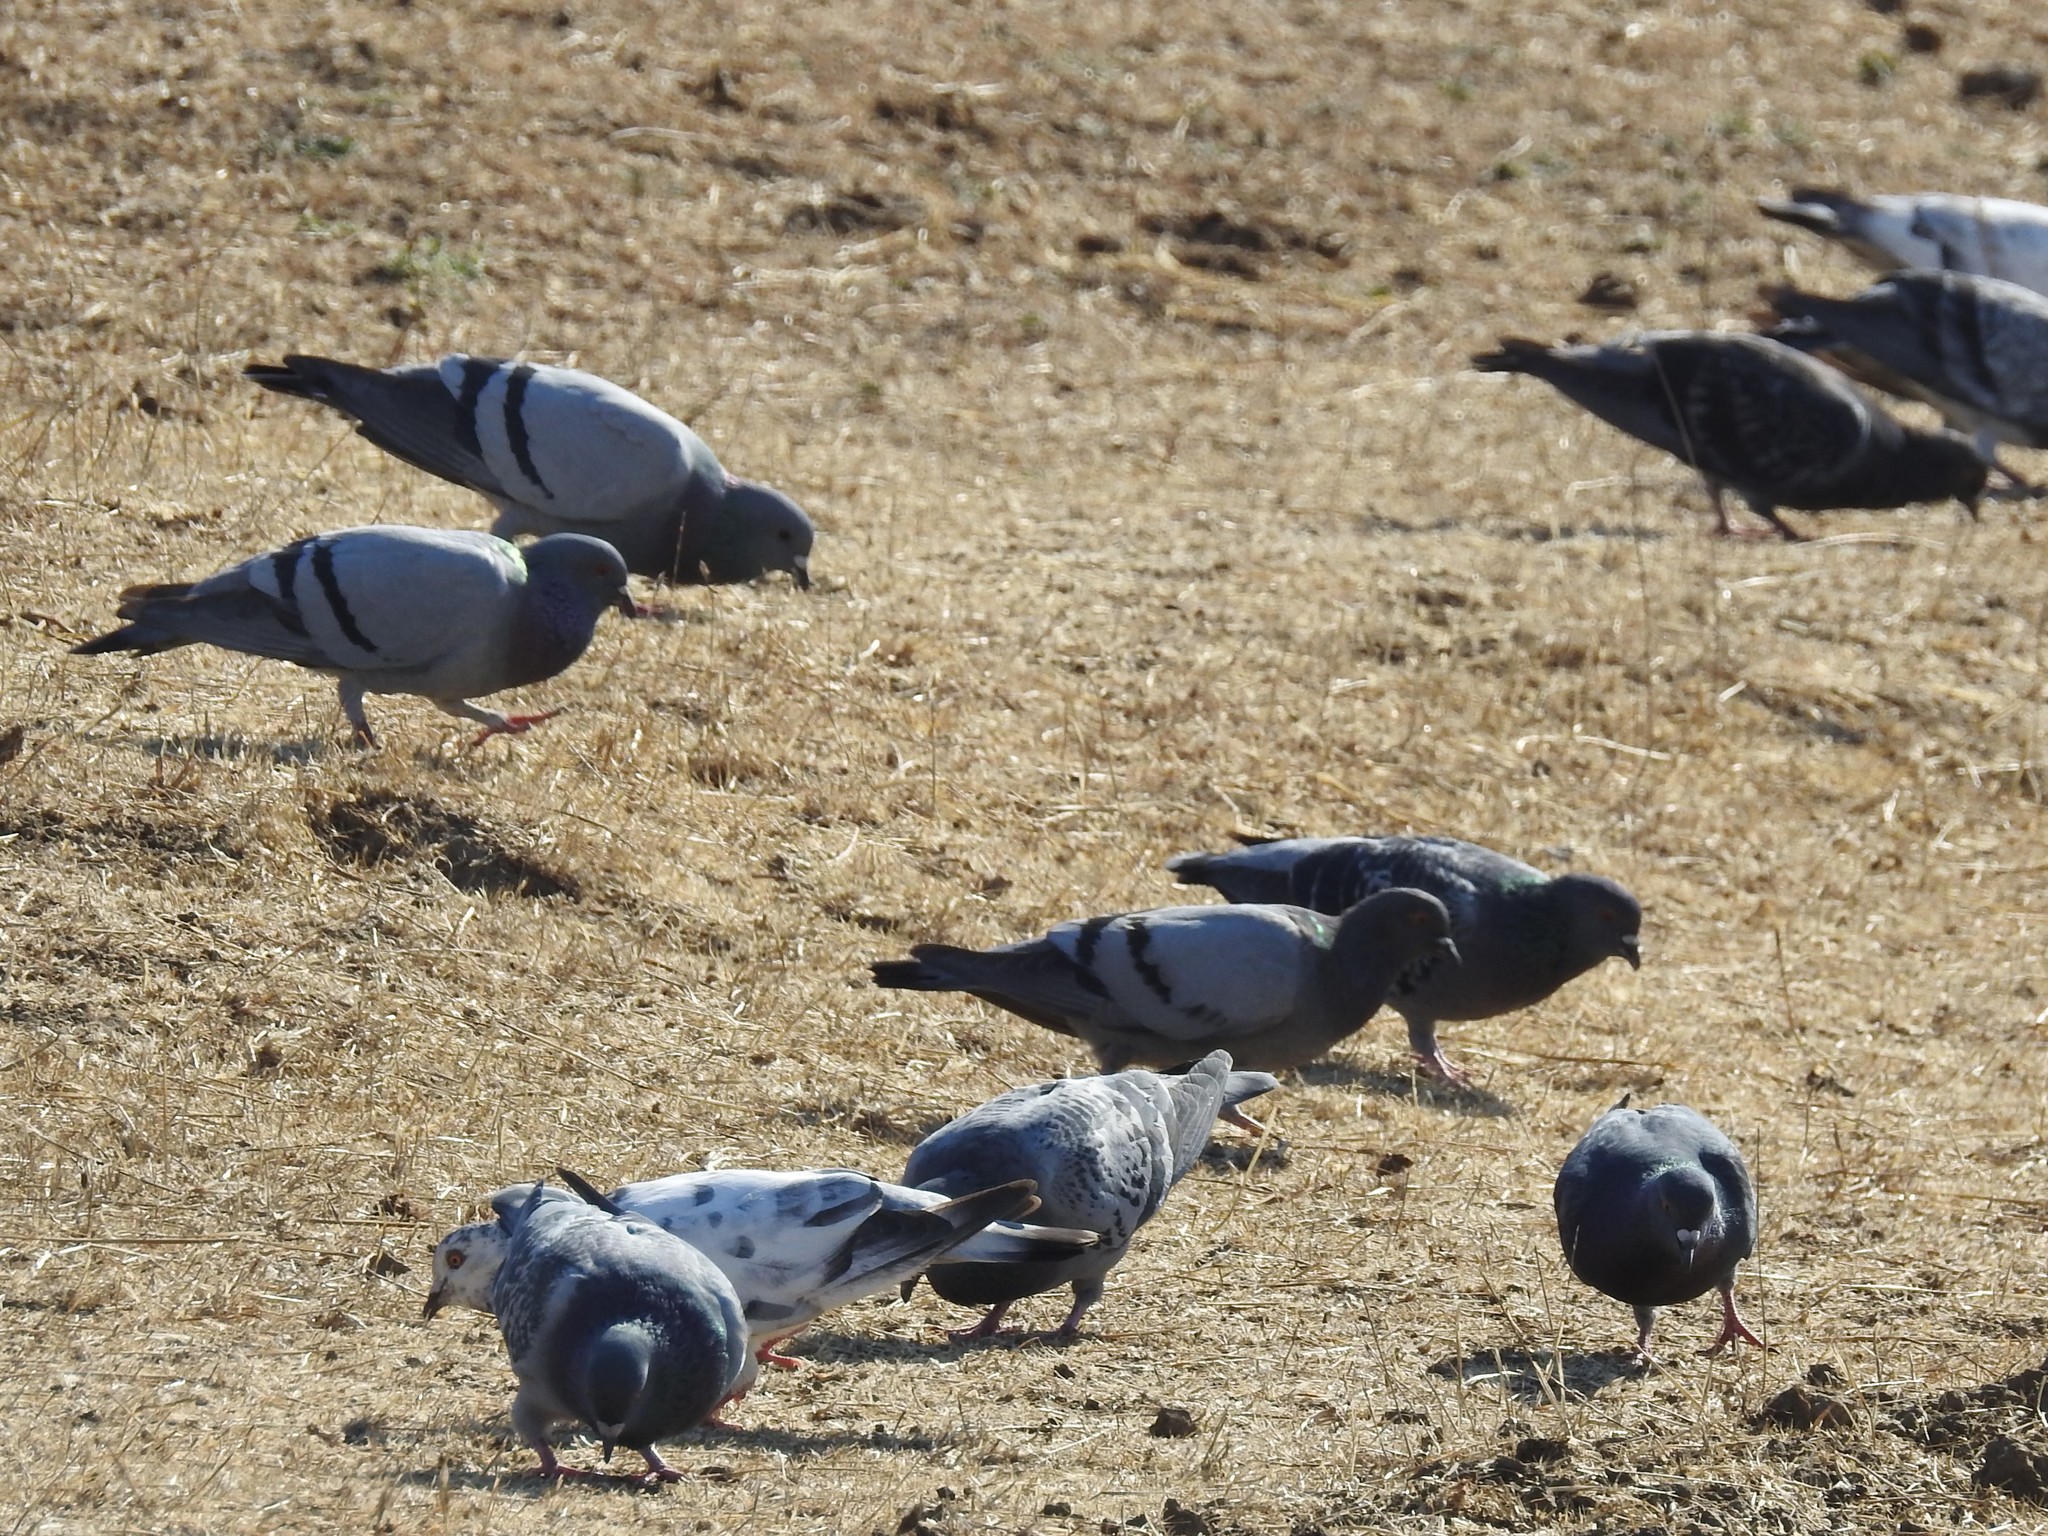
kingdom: Animalia
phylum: Chordata
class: Aves
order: Columbiformes
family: Columbidae
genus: Columba
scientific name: Columba livia
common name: Rock pigeon
